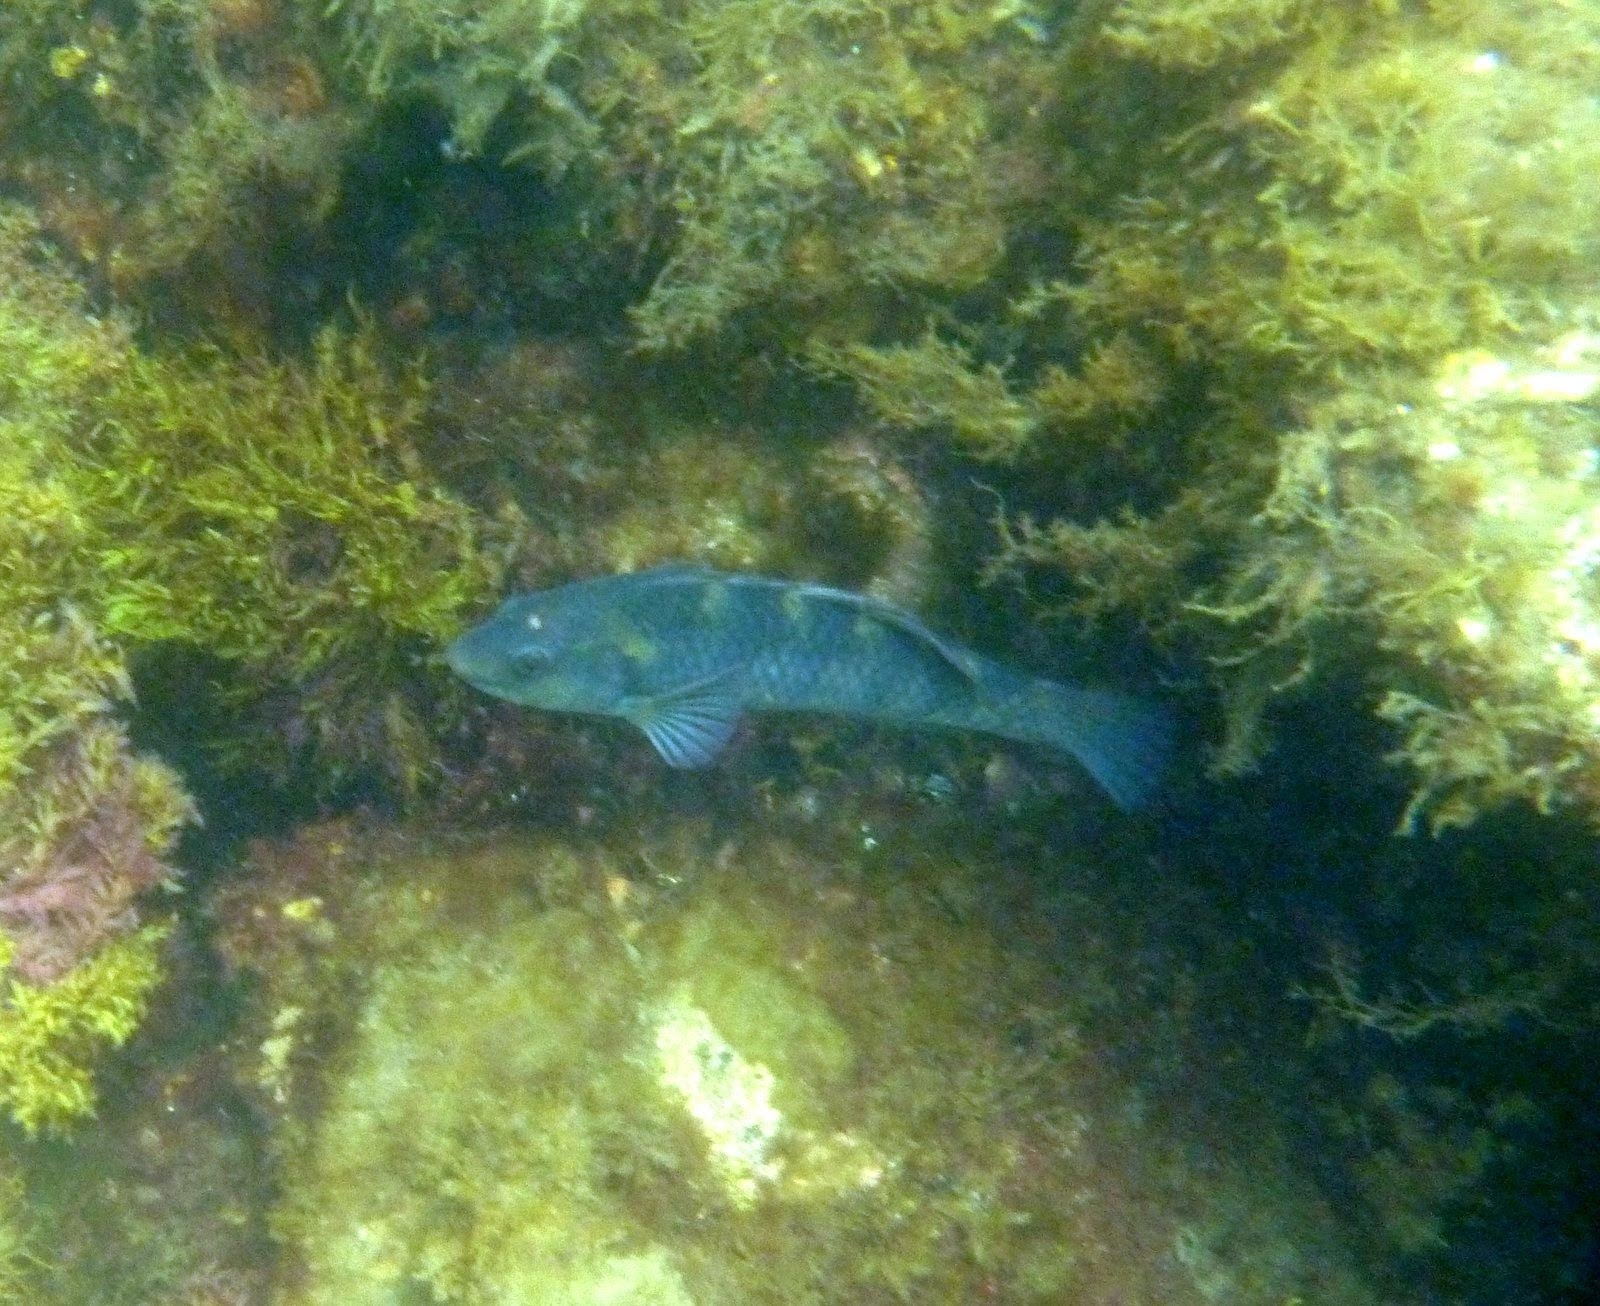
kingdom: Animalia
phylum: Chordata
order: Perciformes
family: Labridae
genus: Notolabrus
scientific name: Notolabrus fucicola
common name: Banded parrotfish
